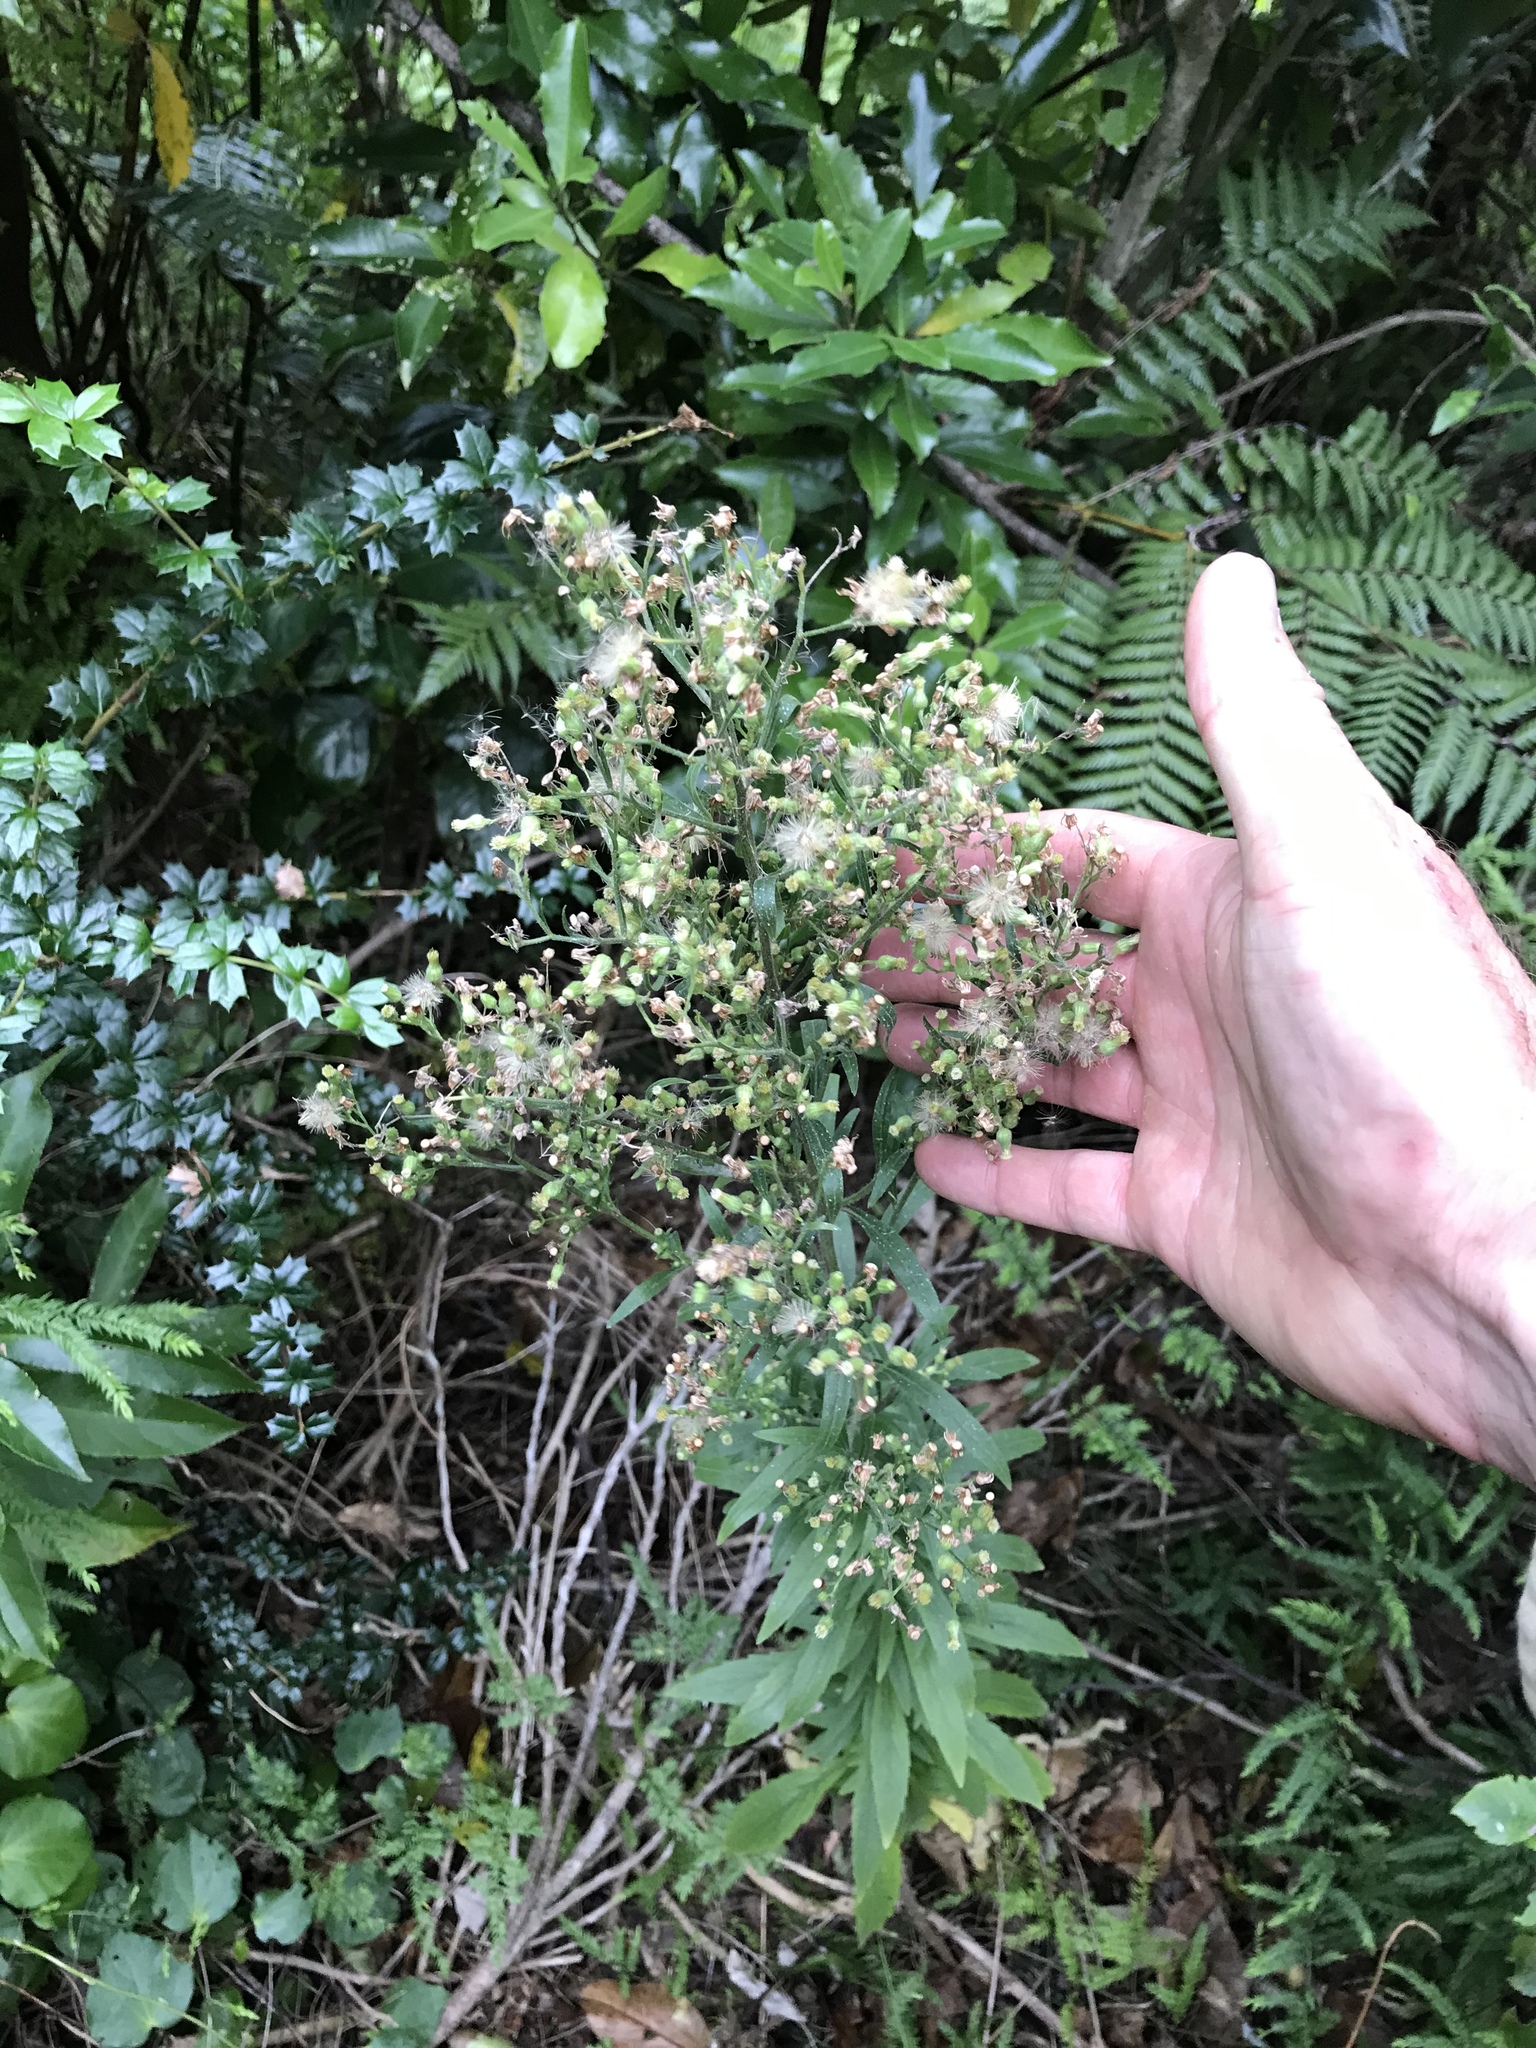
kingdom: Plantae
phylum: Tracheophyta
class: Magnoliopsida
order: Asterales
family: Asteraceae
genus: Erigeron
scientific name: Erigeron sumatrensis
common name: Daisy
